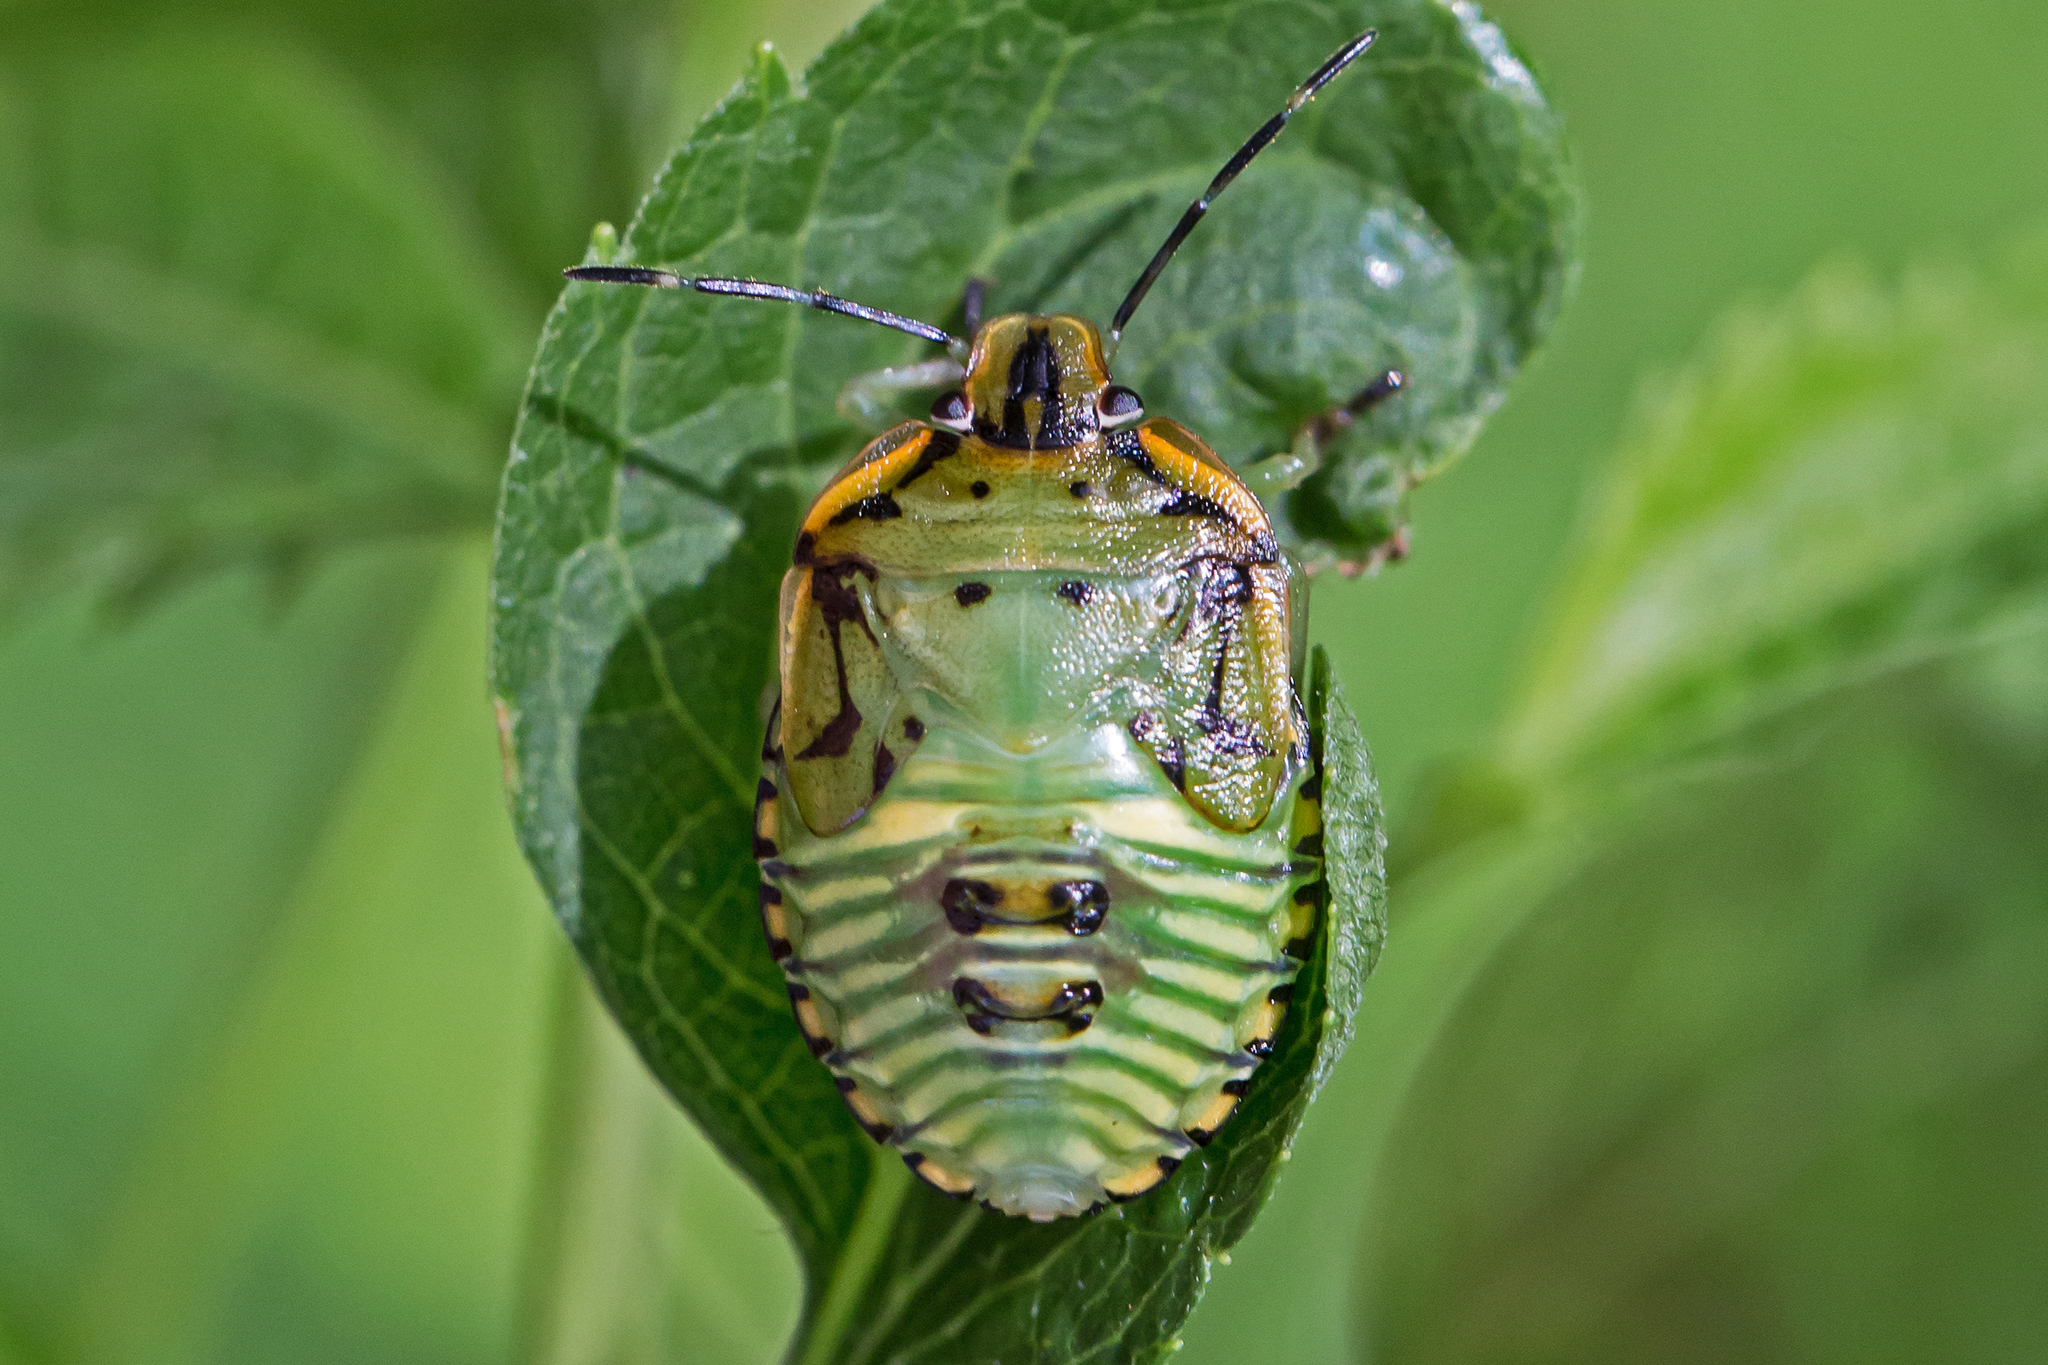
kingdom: Animalia
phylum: Arthropoda
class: Insecta
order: Hemiptera
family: Pentatomidae
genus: Chinavia
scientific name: Chinavia hilaris
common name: Green stink bug
